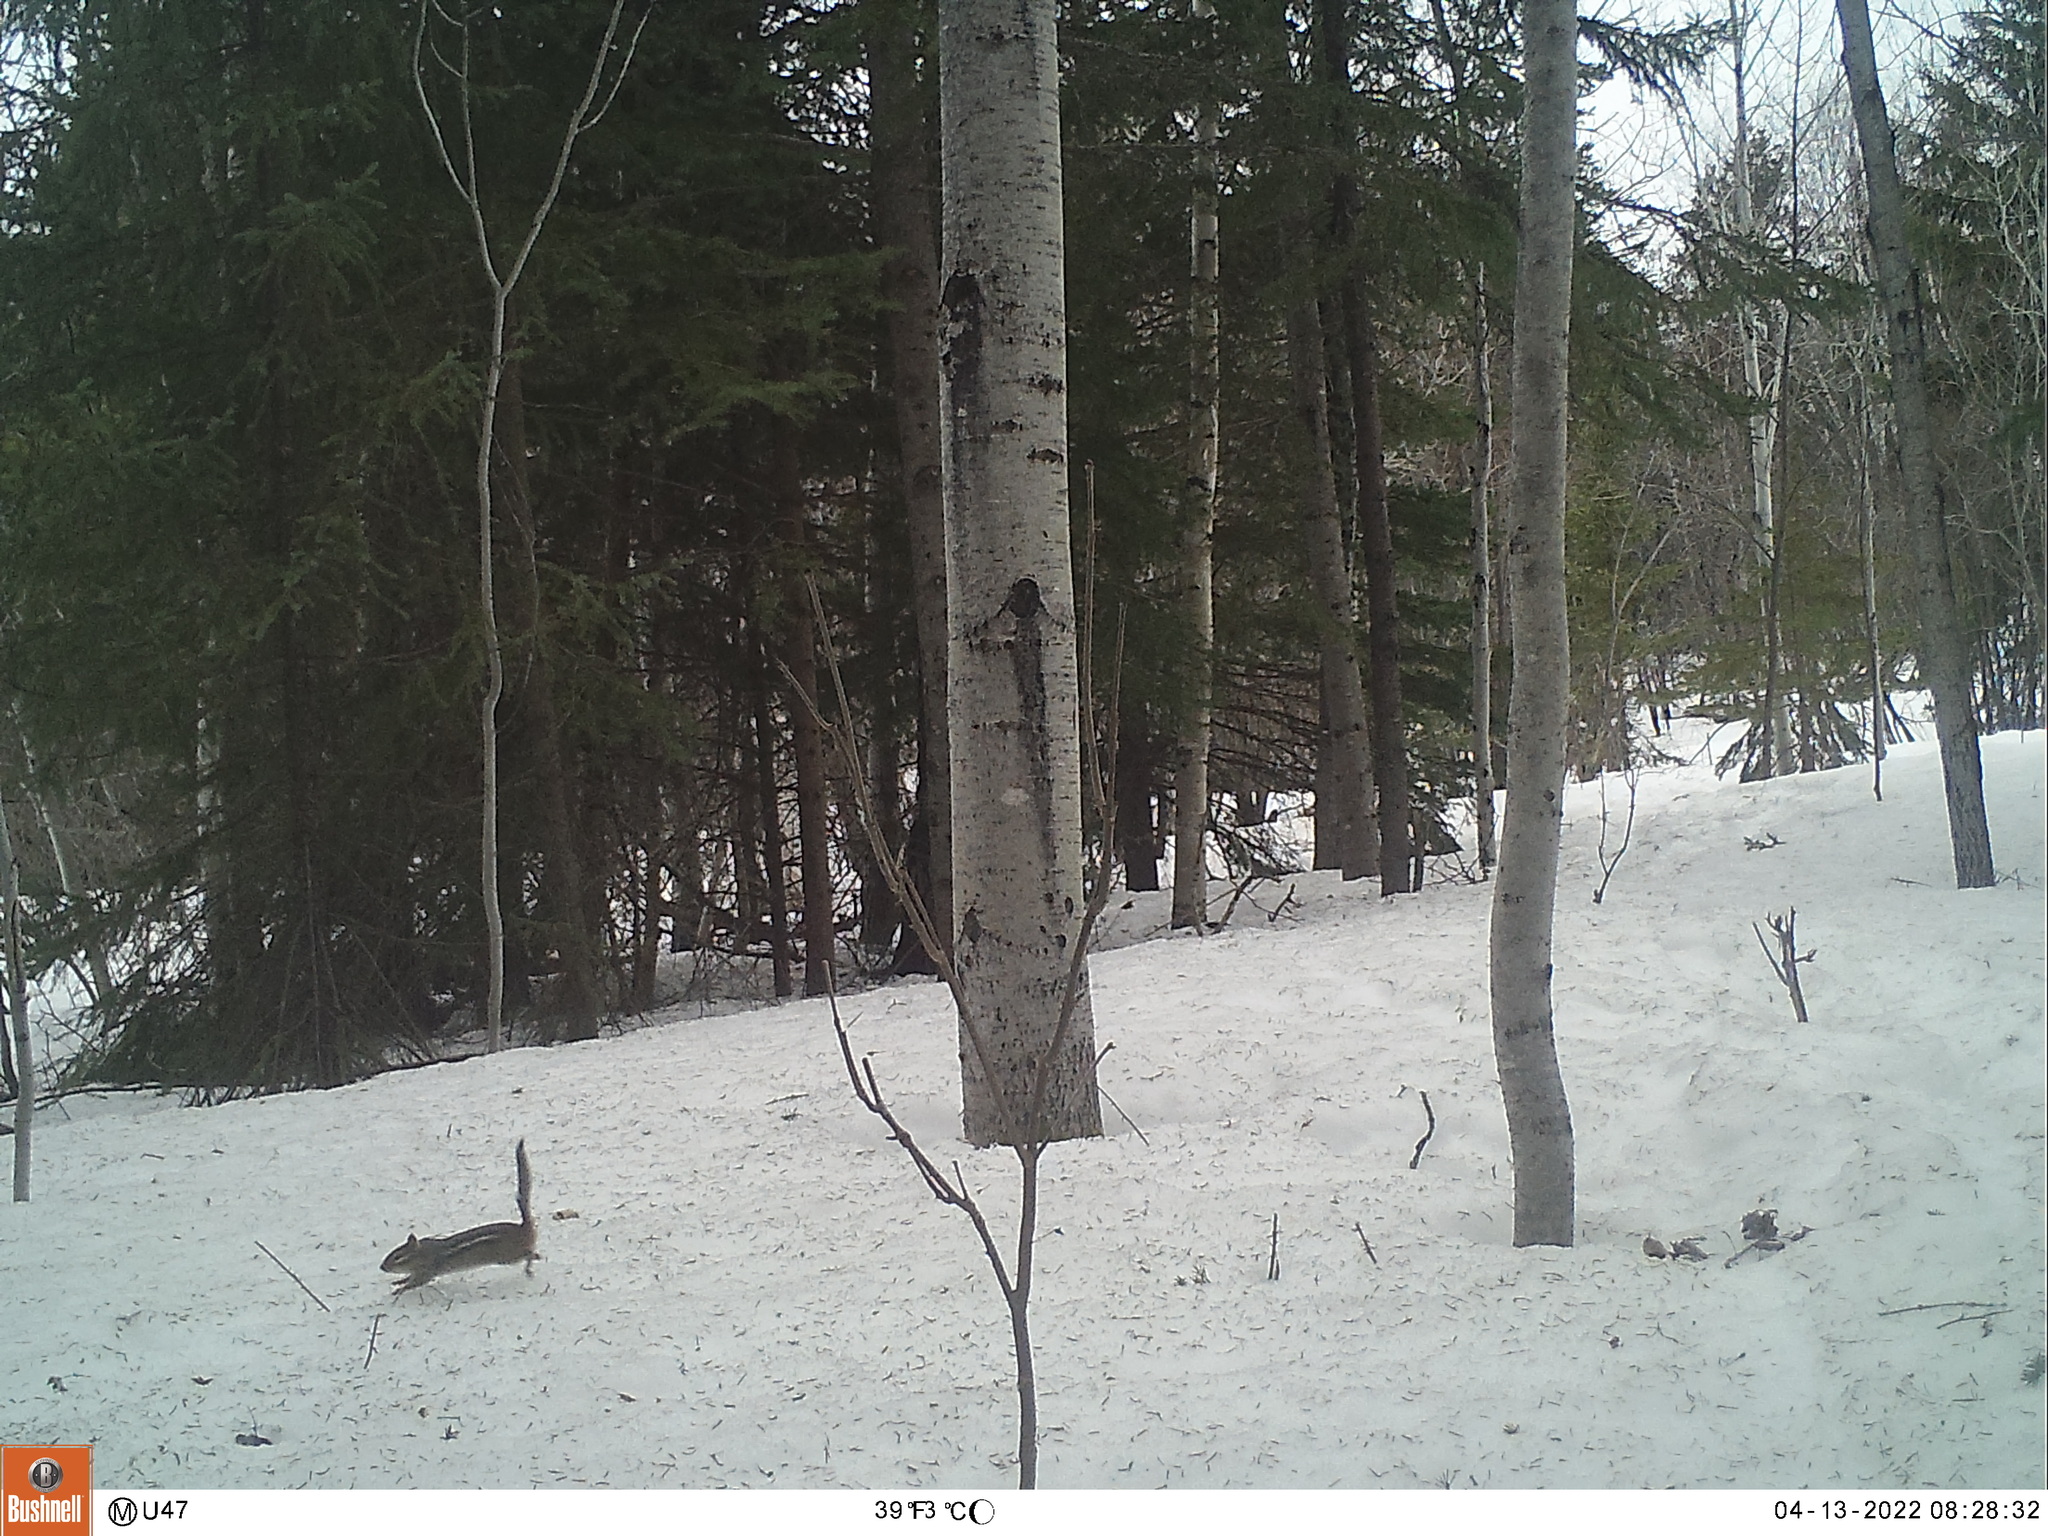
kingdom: Animalia
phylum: Chordata
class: Mammalia
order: Rodentia
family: Sciuridae
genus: Tamias
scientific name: Tamias striatus
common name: Eastern chipmunk
